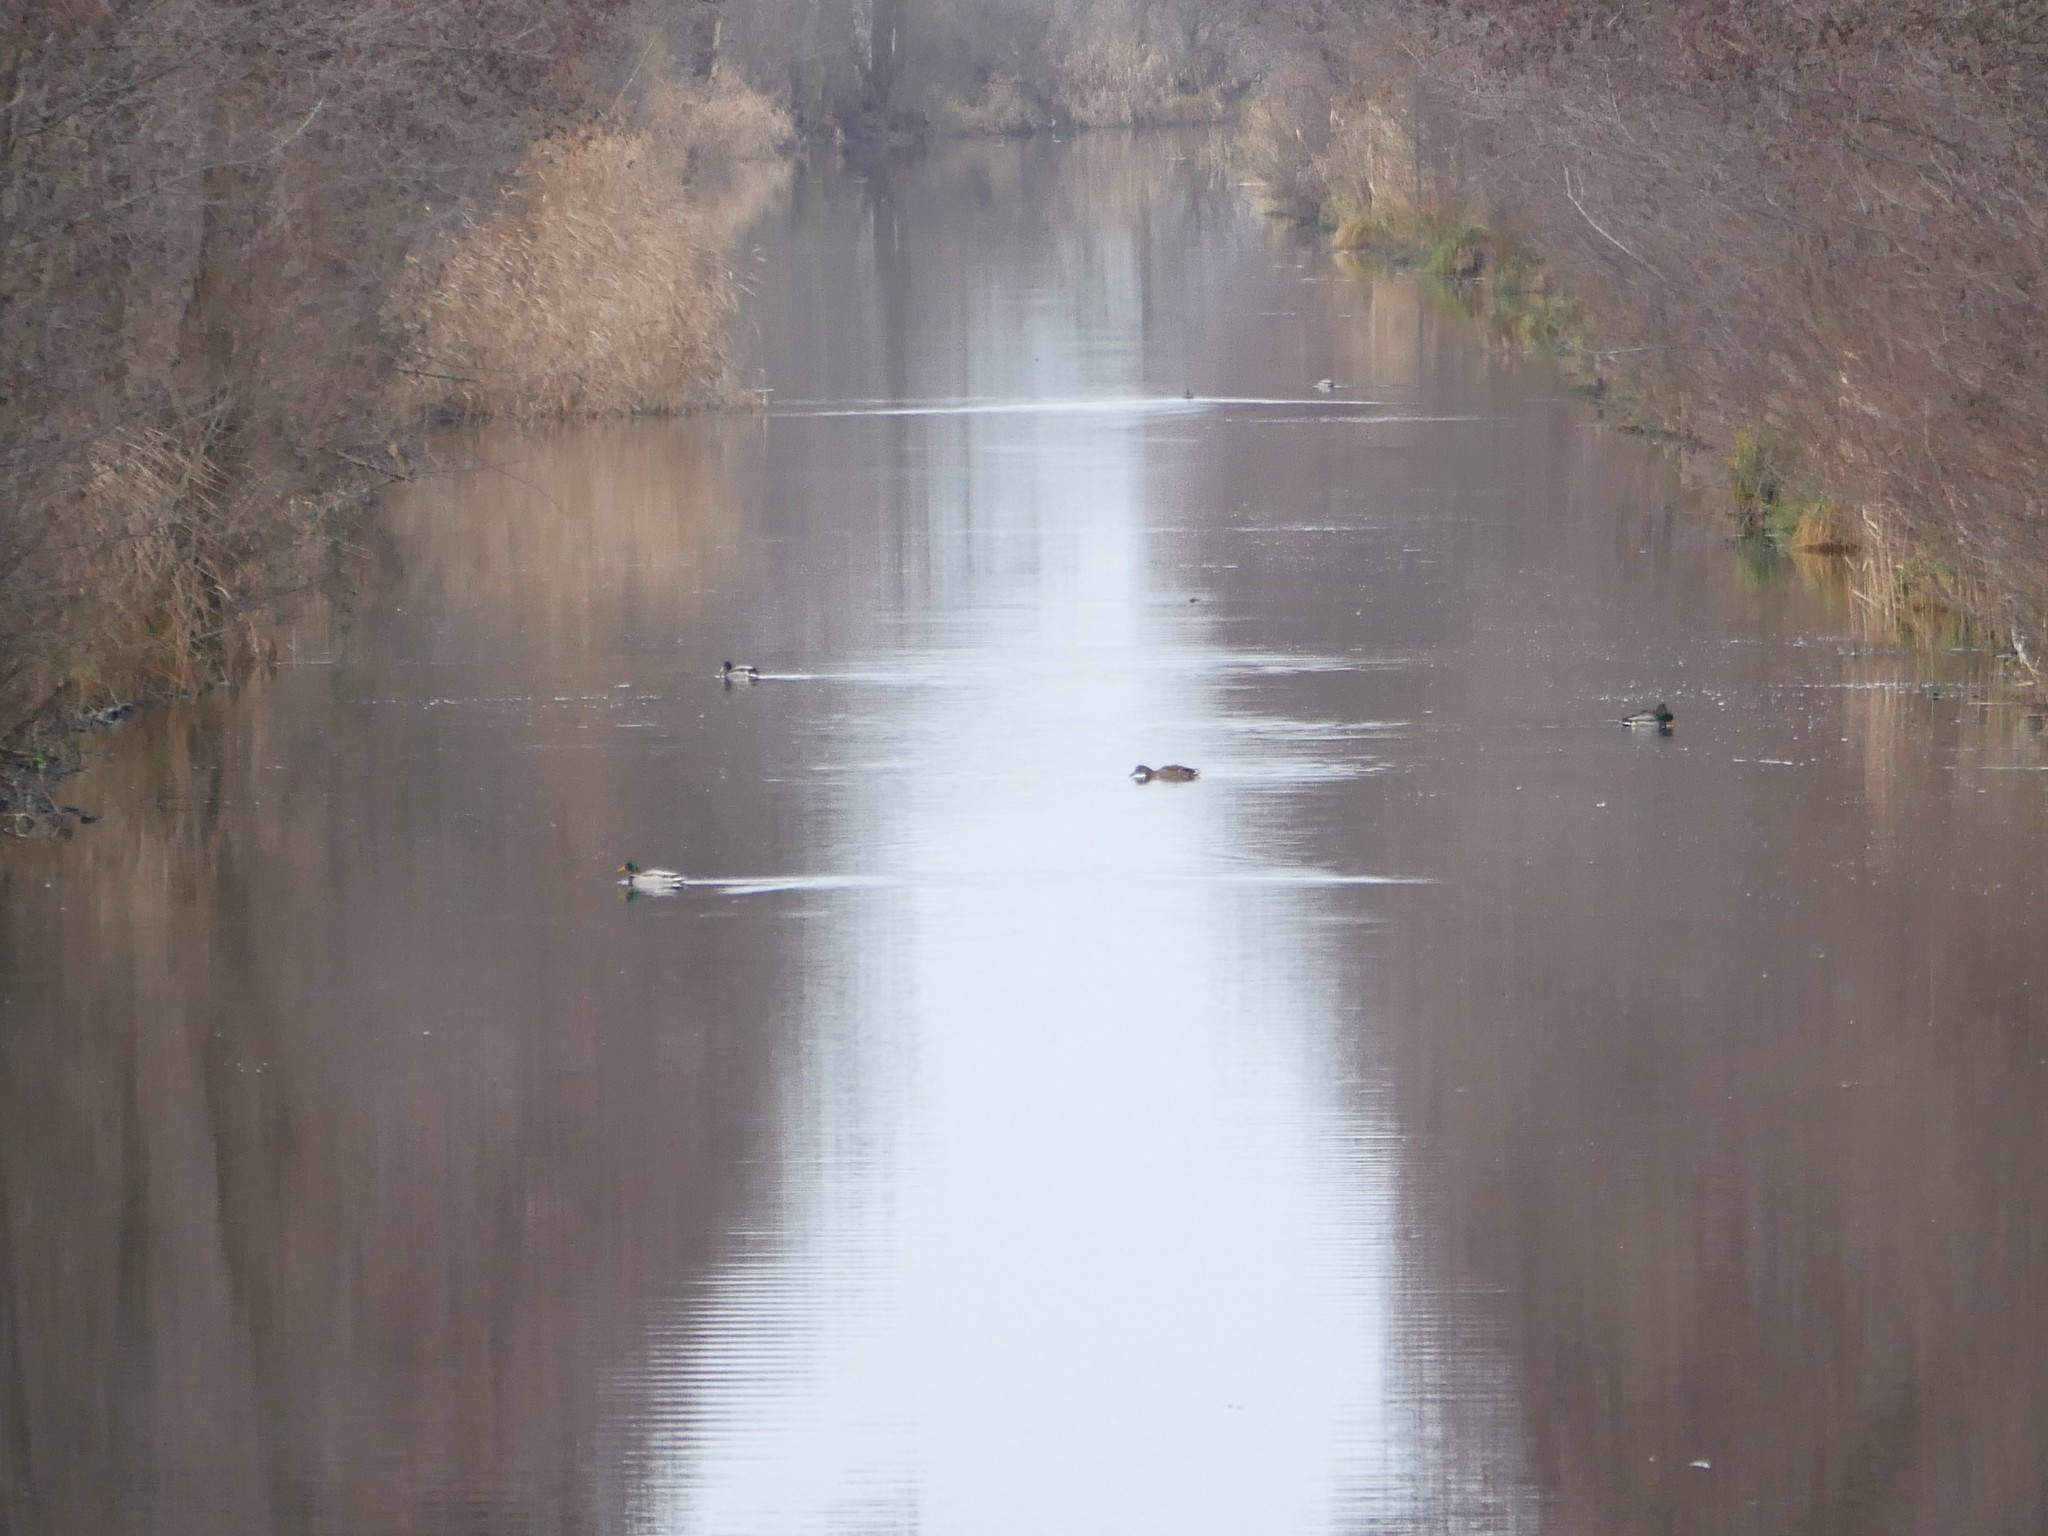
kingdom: Animalia
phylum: Chordata
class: Aves
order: Anseriformes
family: Anatidae
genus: Anas
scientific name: Anas platyrhynchos
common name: Mallard
